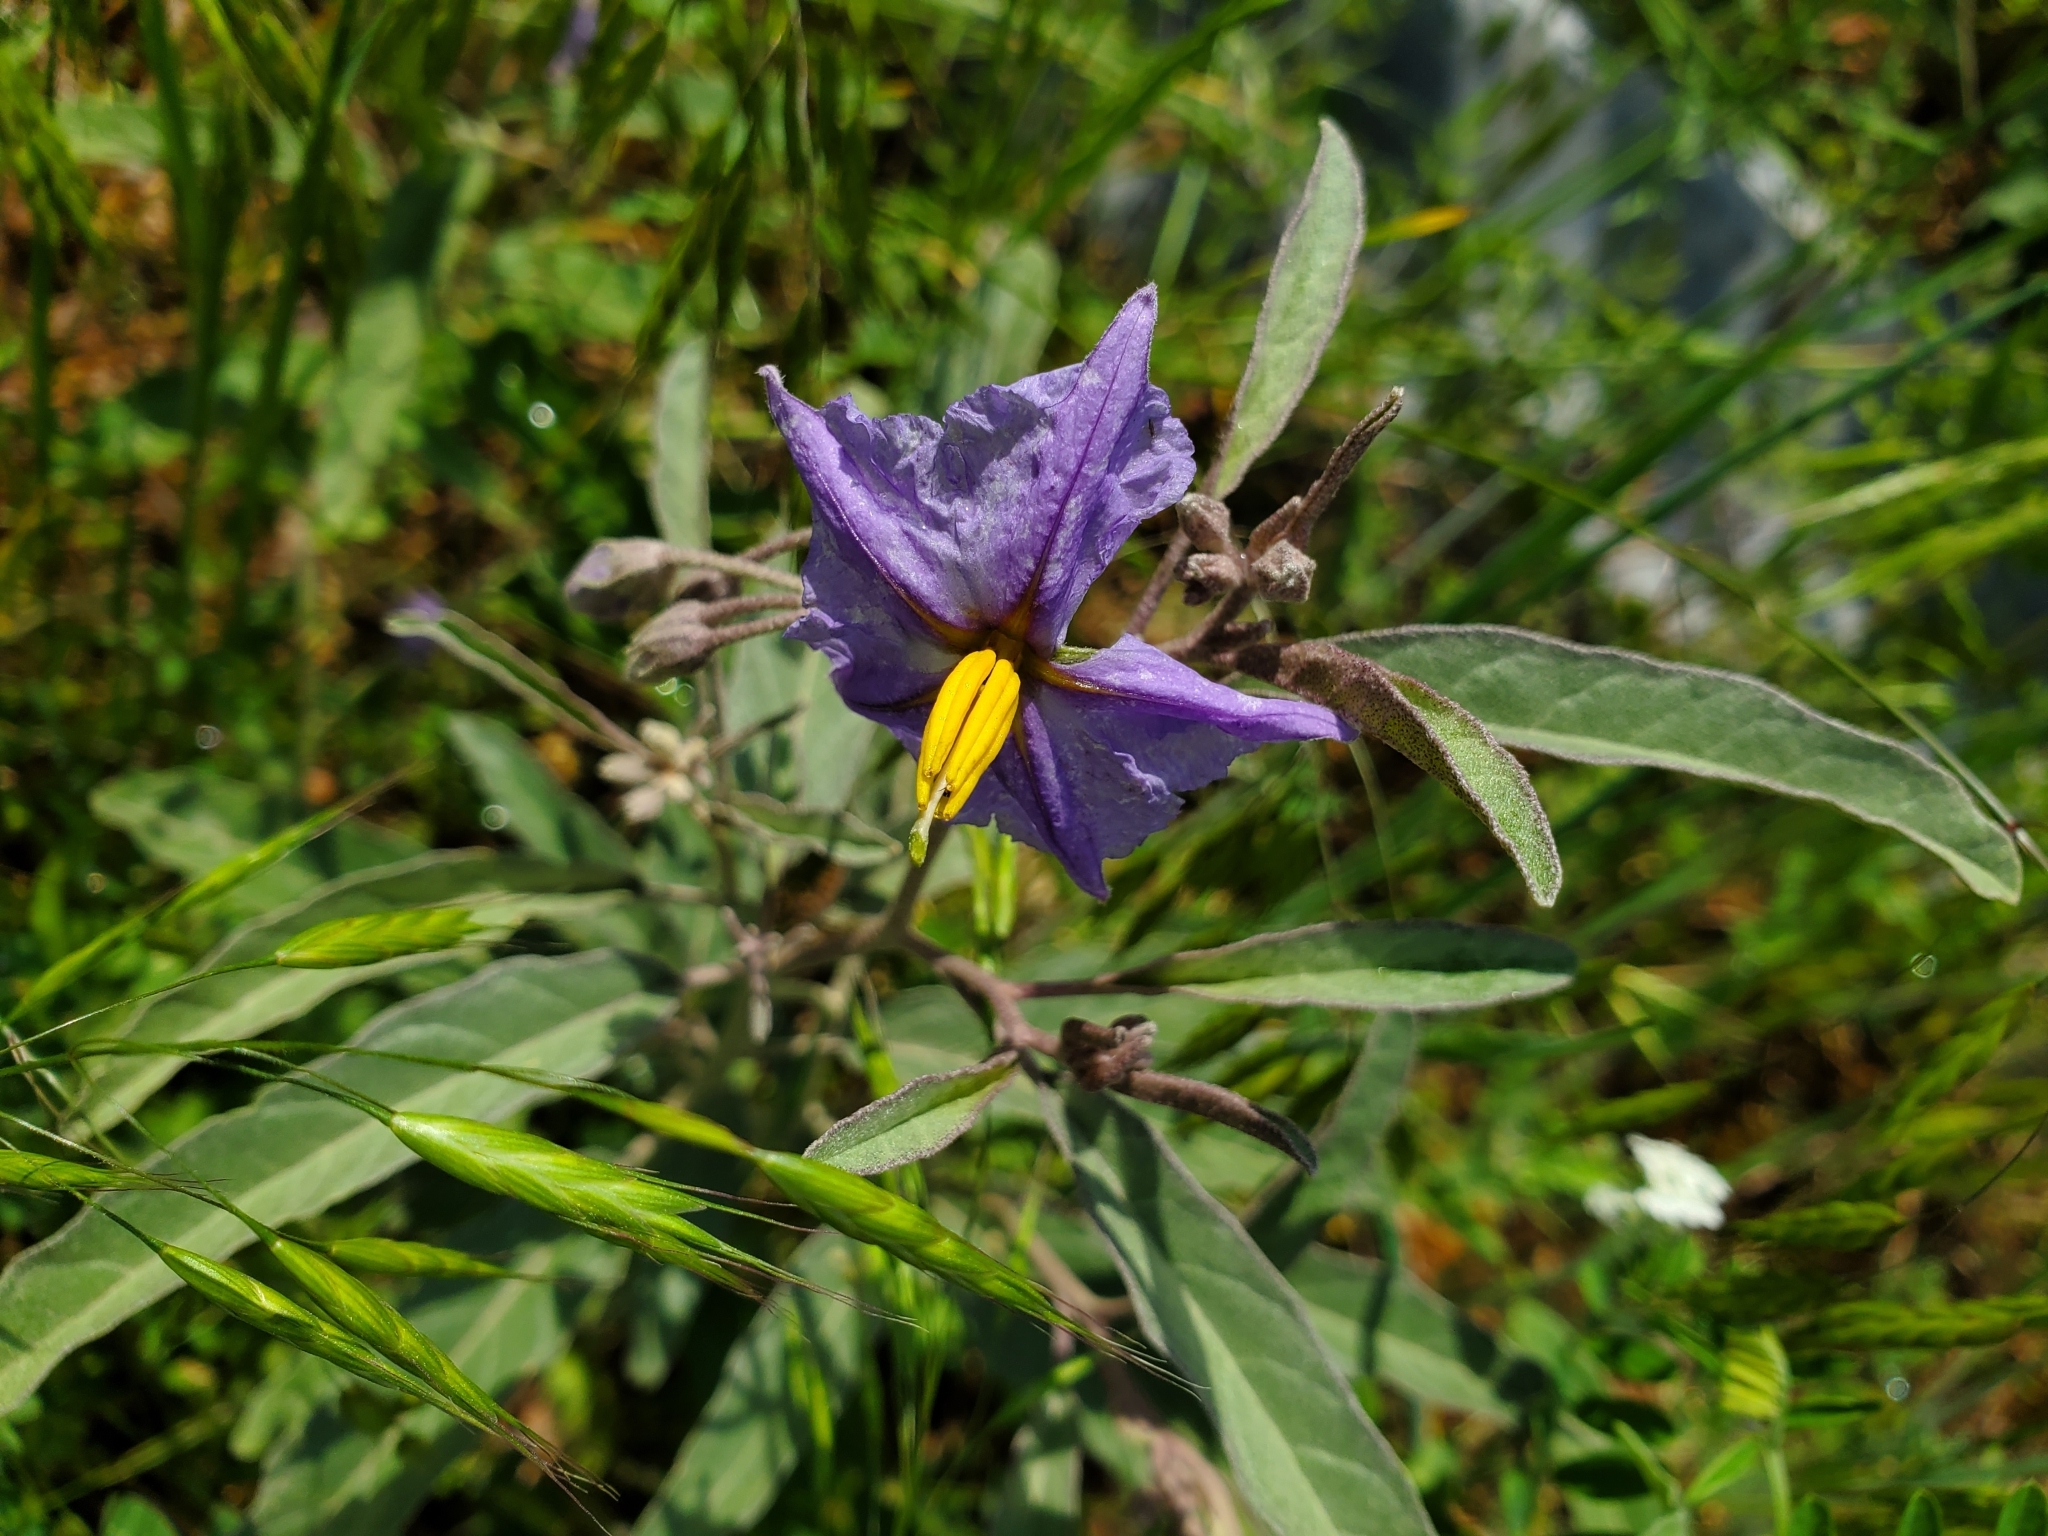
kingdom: Plantae
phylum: Tracheophyta
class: Magnoliopsida
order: Solanales
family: Solanaceae
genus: Solanum
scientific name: Solanum elaeagnifolium
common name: Silverleaf nightshade
